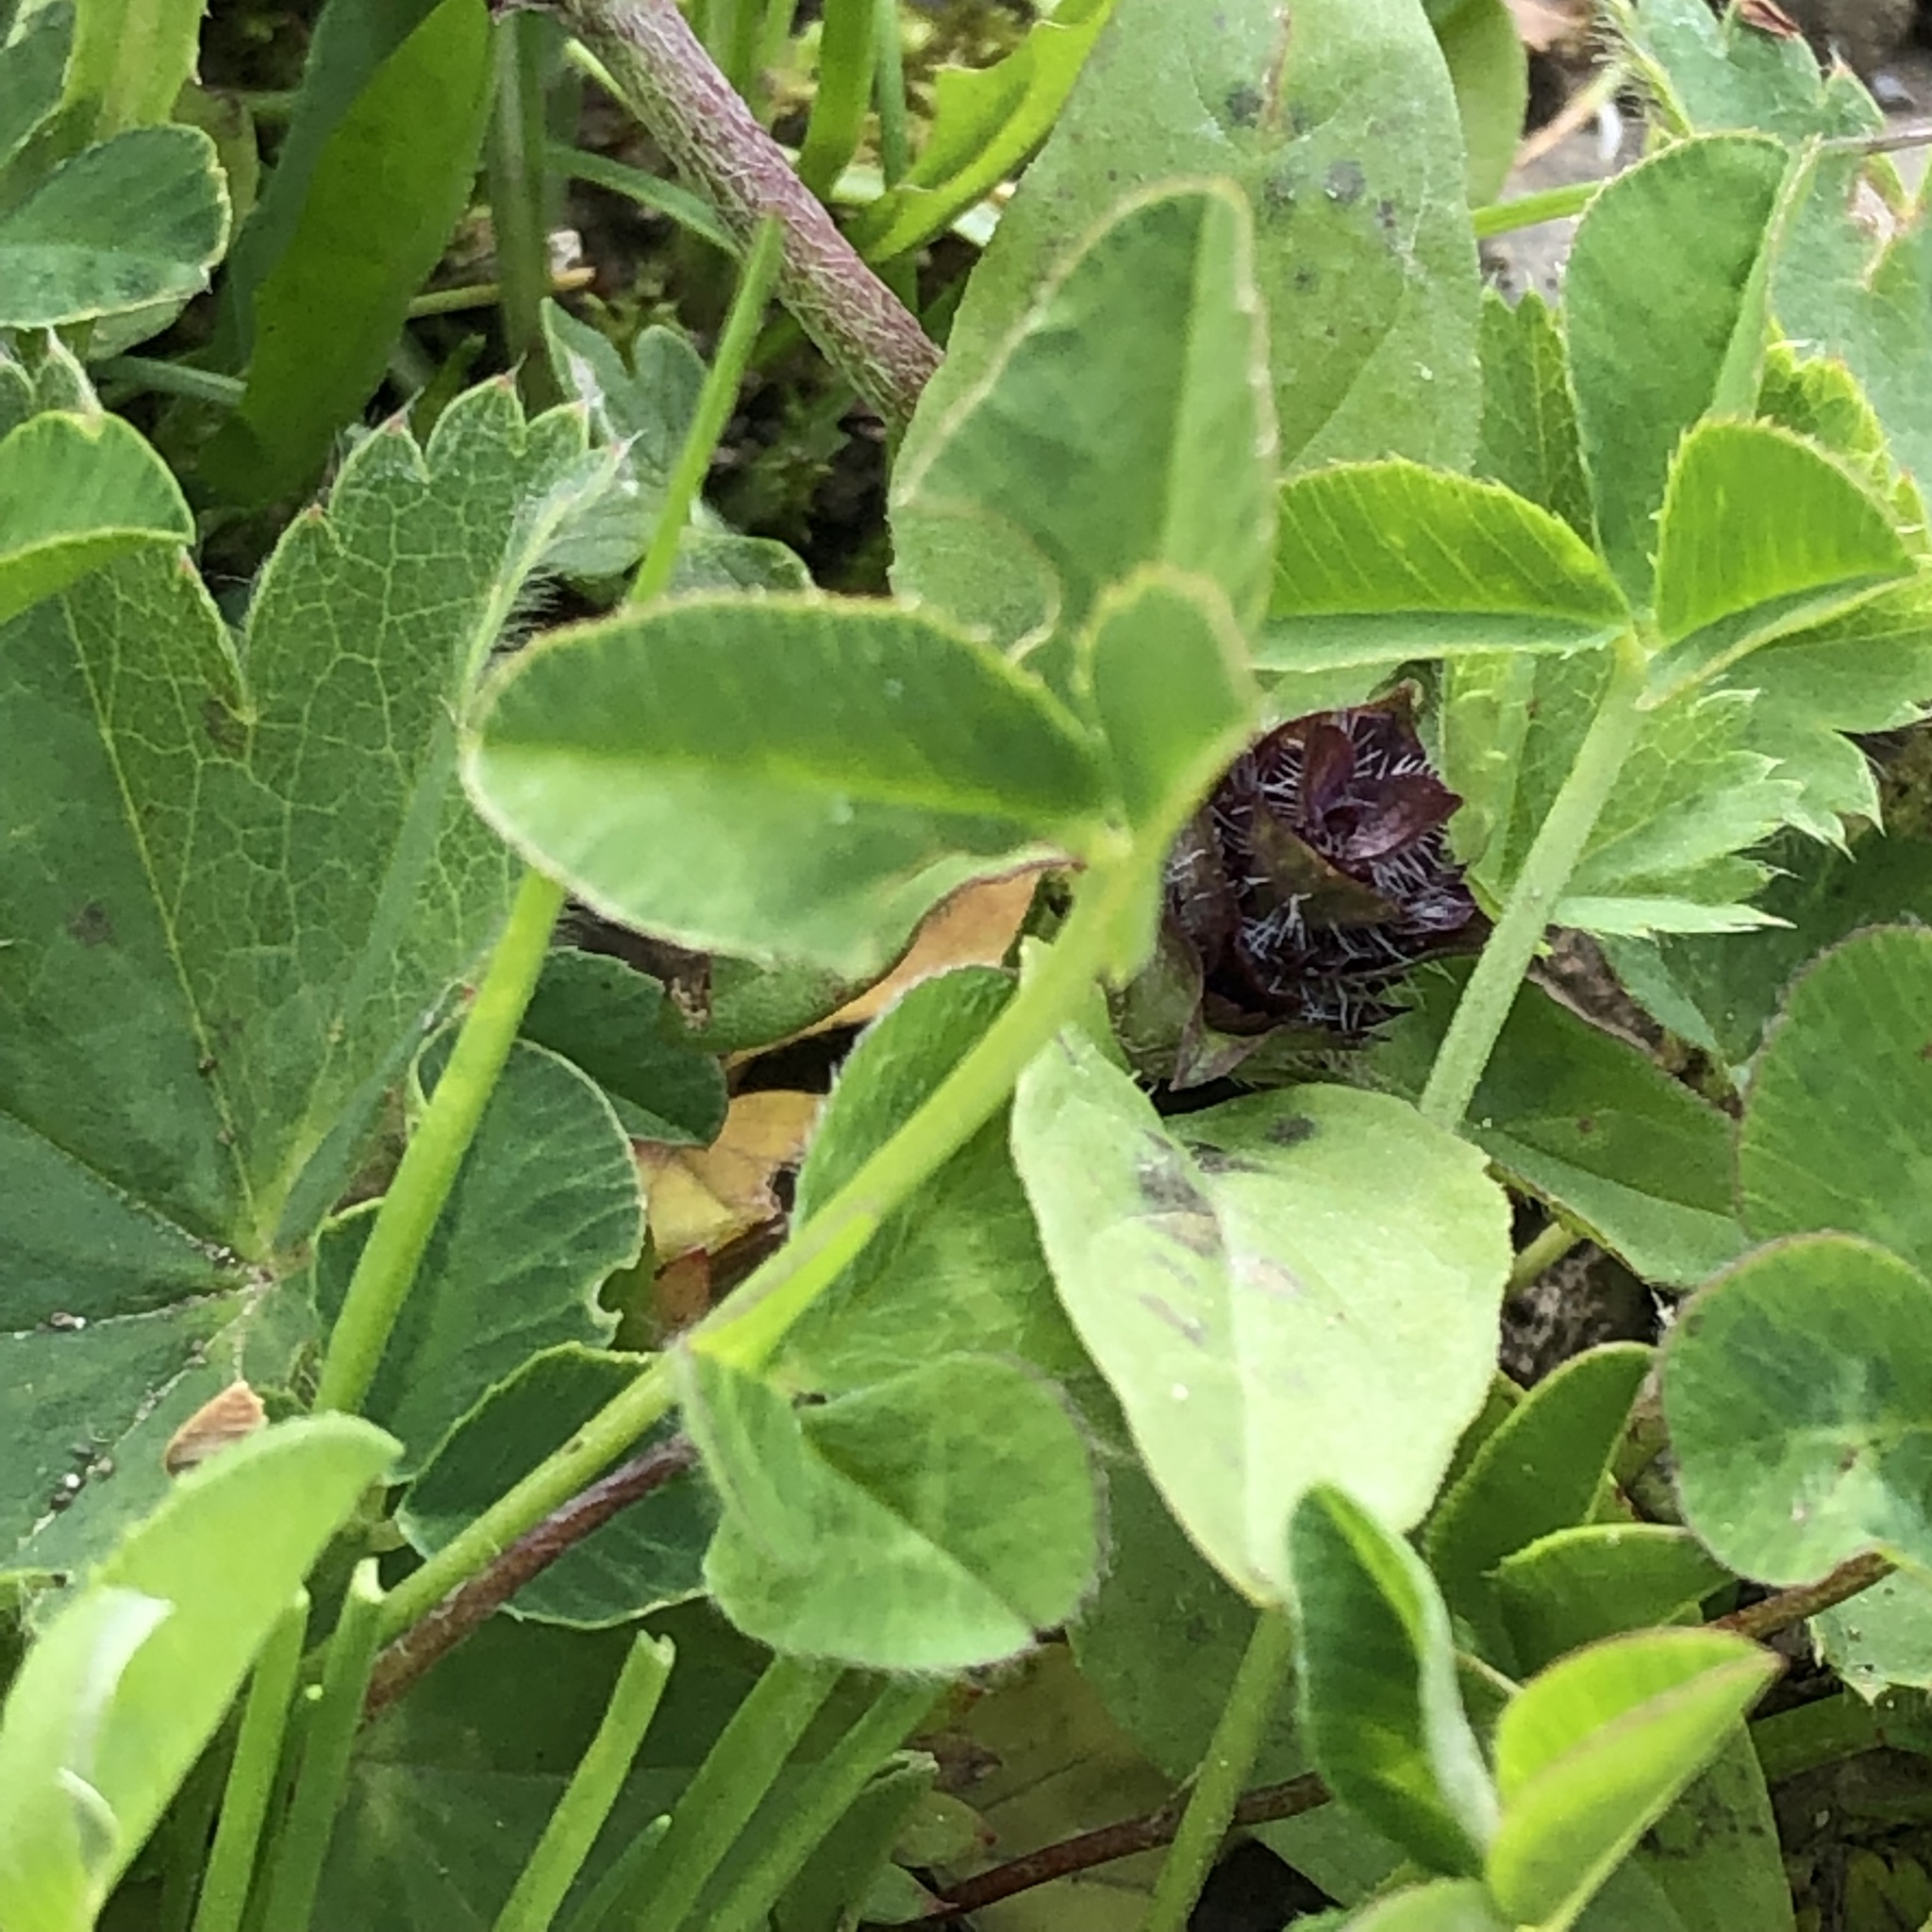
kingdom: Plantae
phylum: Tracheophyta
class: Magnoliopsida
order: Lamiales
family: Lamiaceae
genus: Prunella
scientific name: Prunella vulgaris
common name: Heal-all
